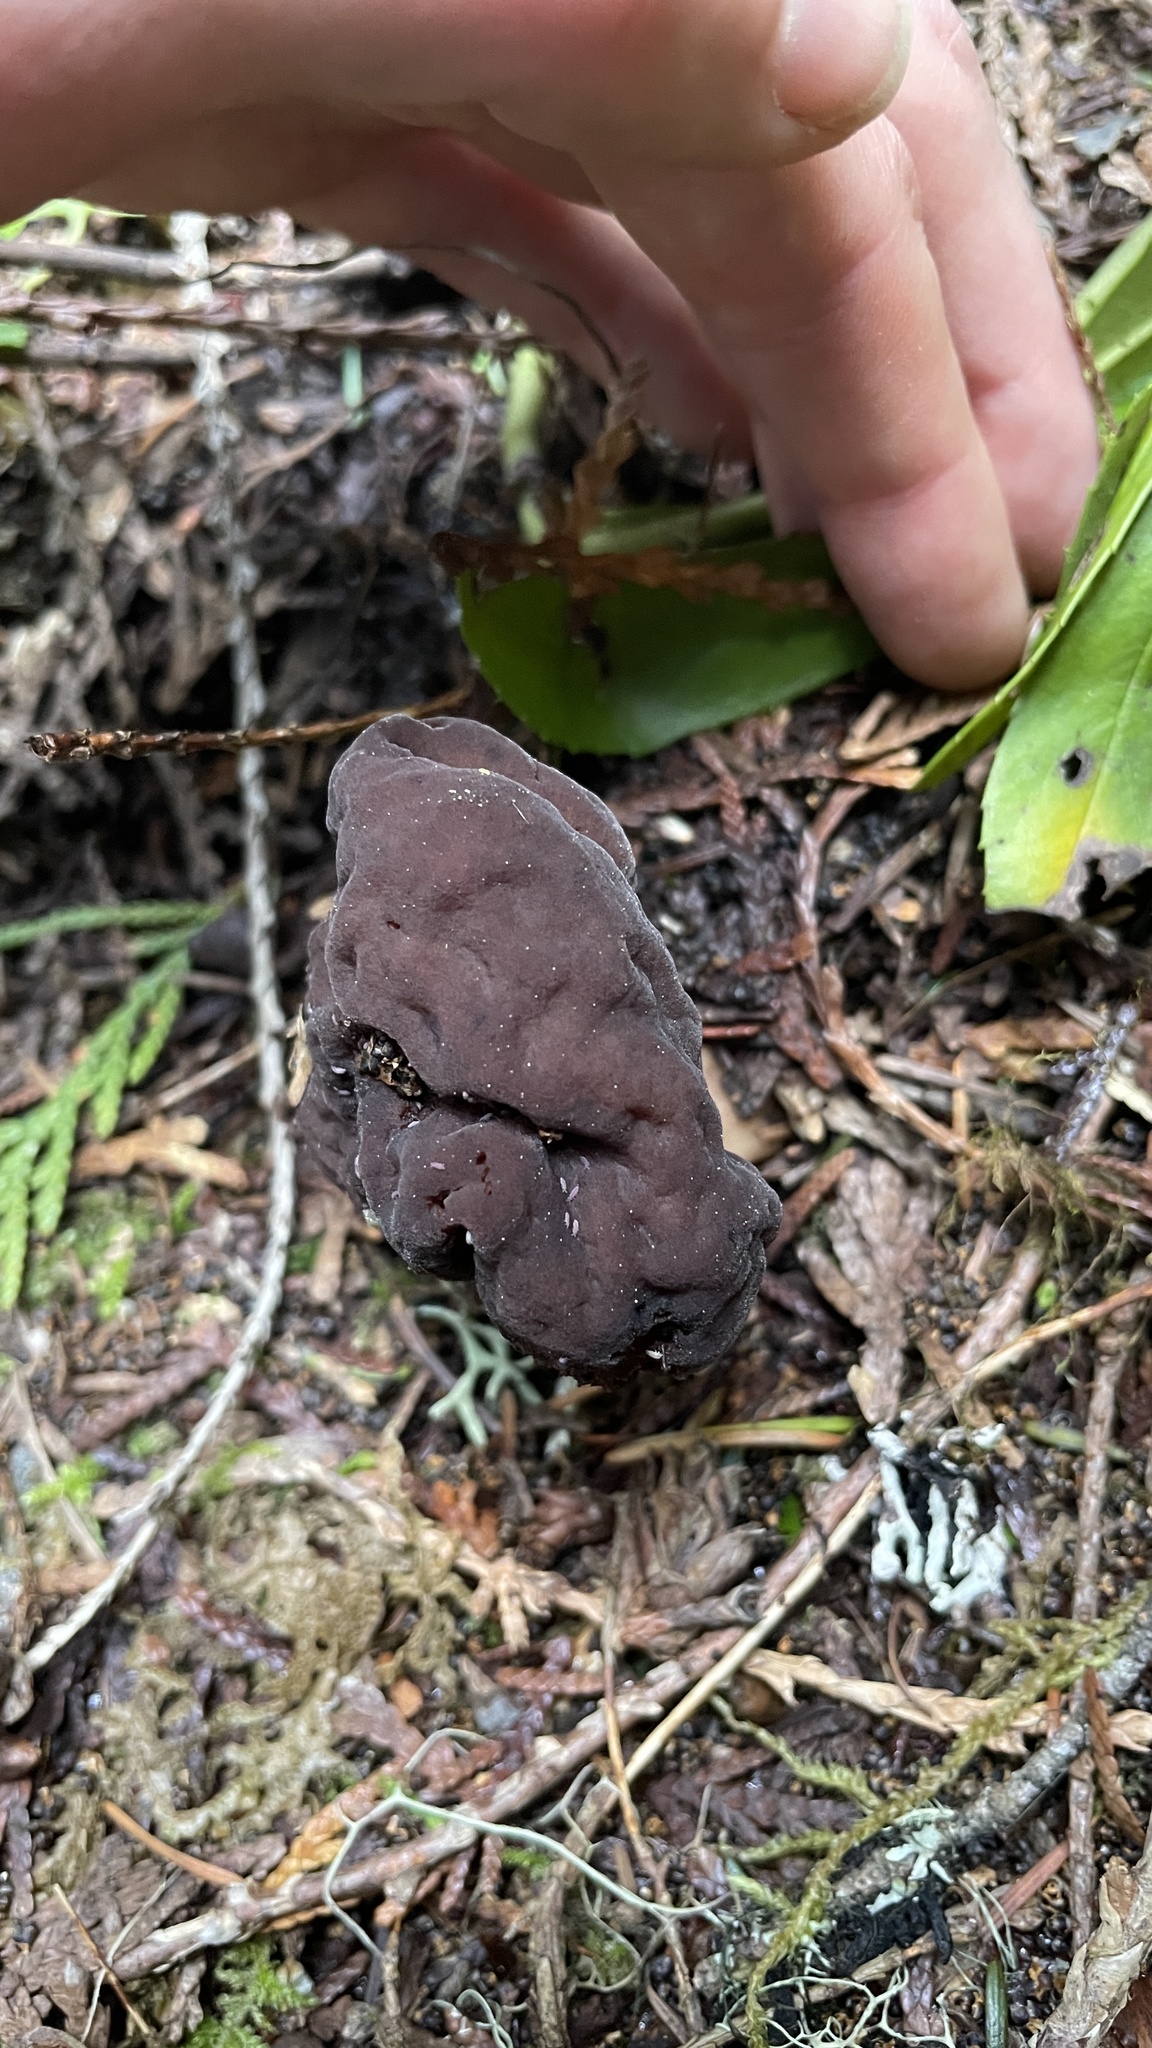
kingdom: Fungi
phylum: Ascomycota
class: Pezizomycetes
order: Pezizales
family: Discinaceae
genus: Gyromitra
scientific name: Gyromitra esculenta
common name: False morel
